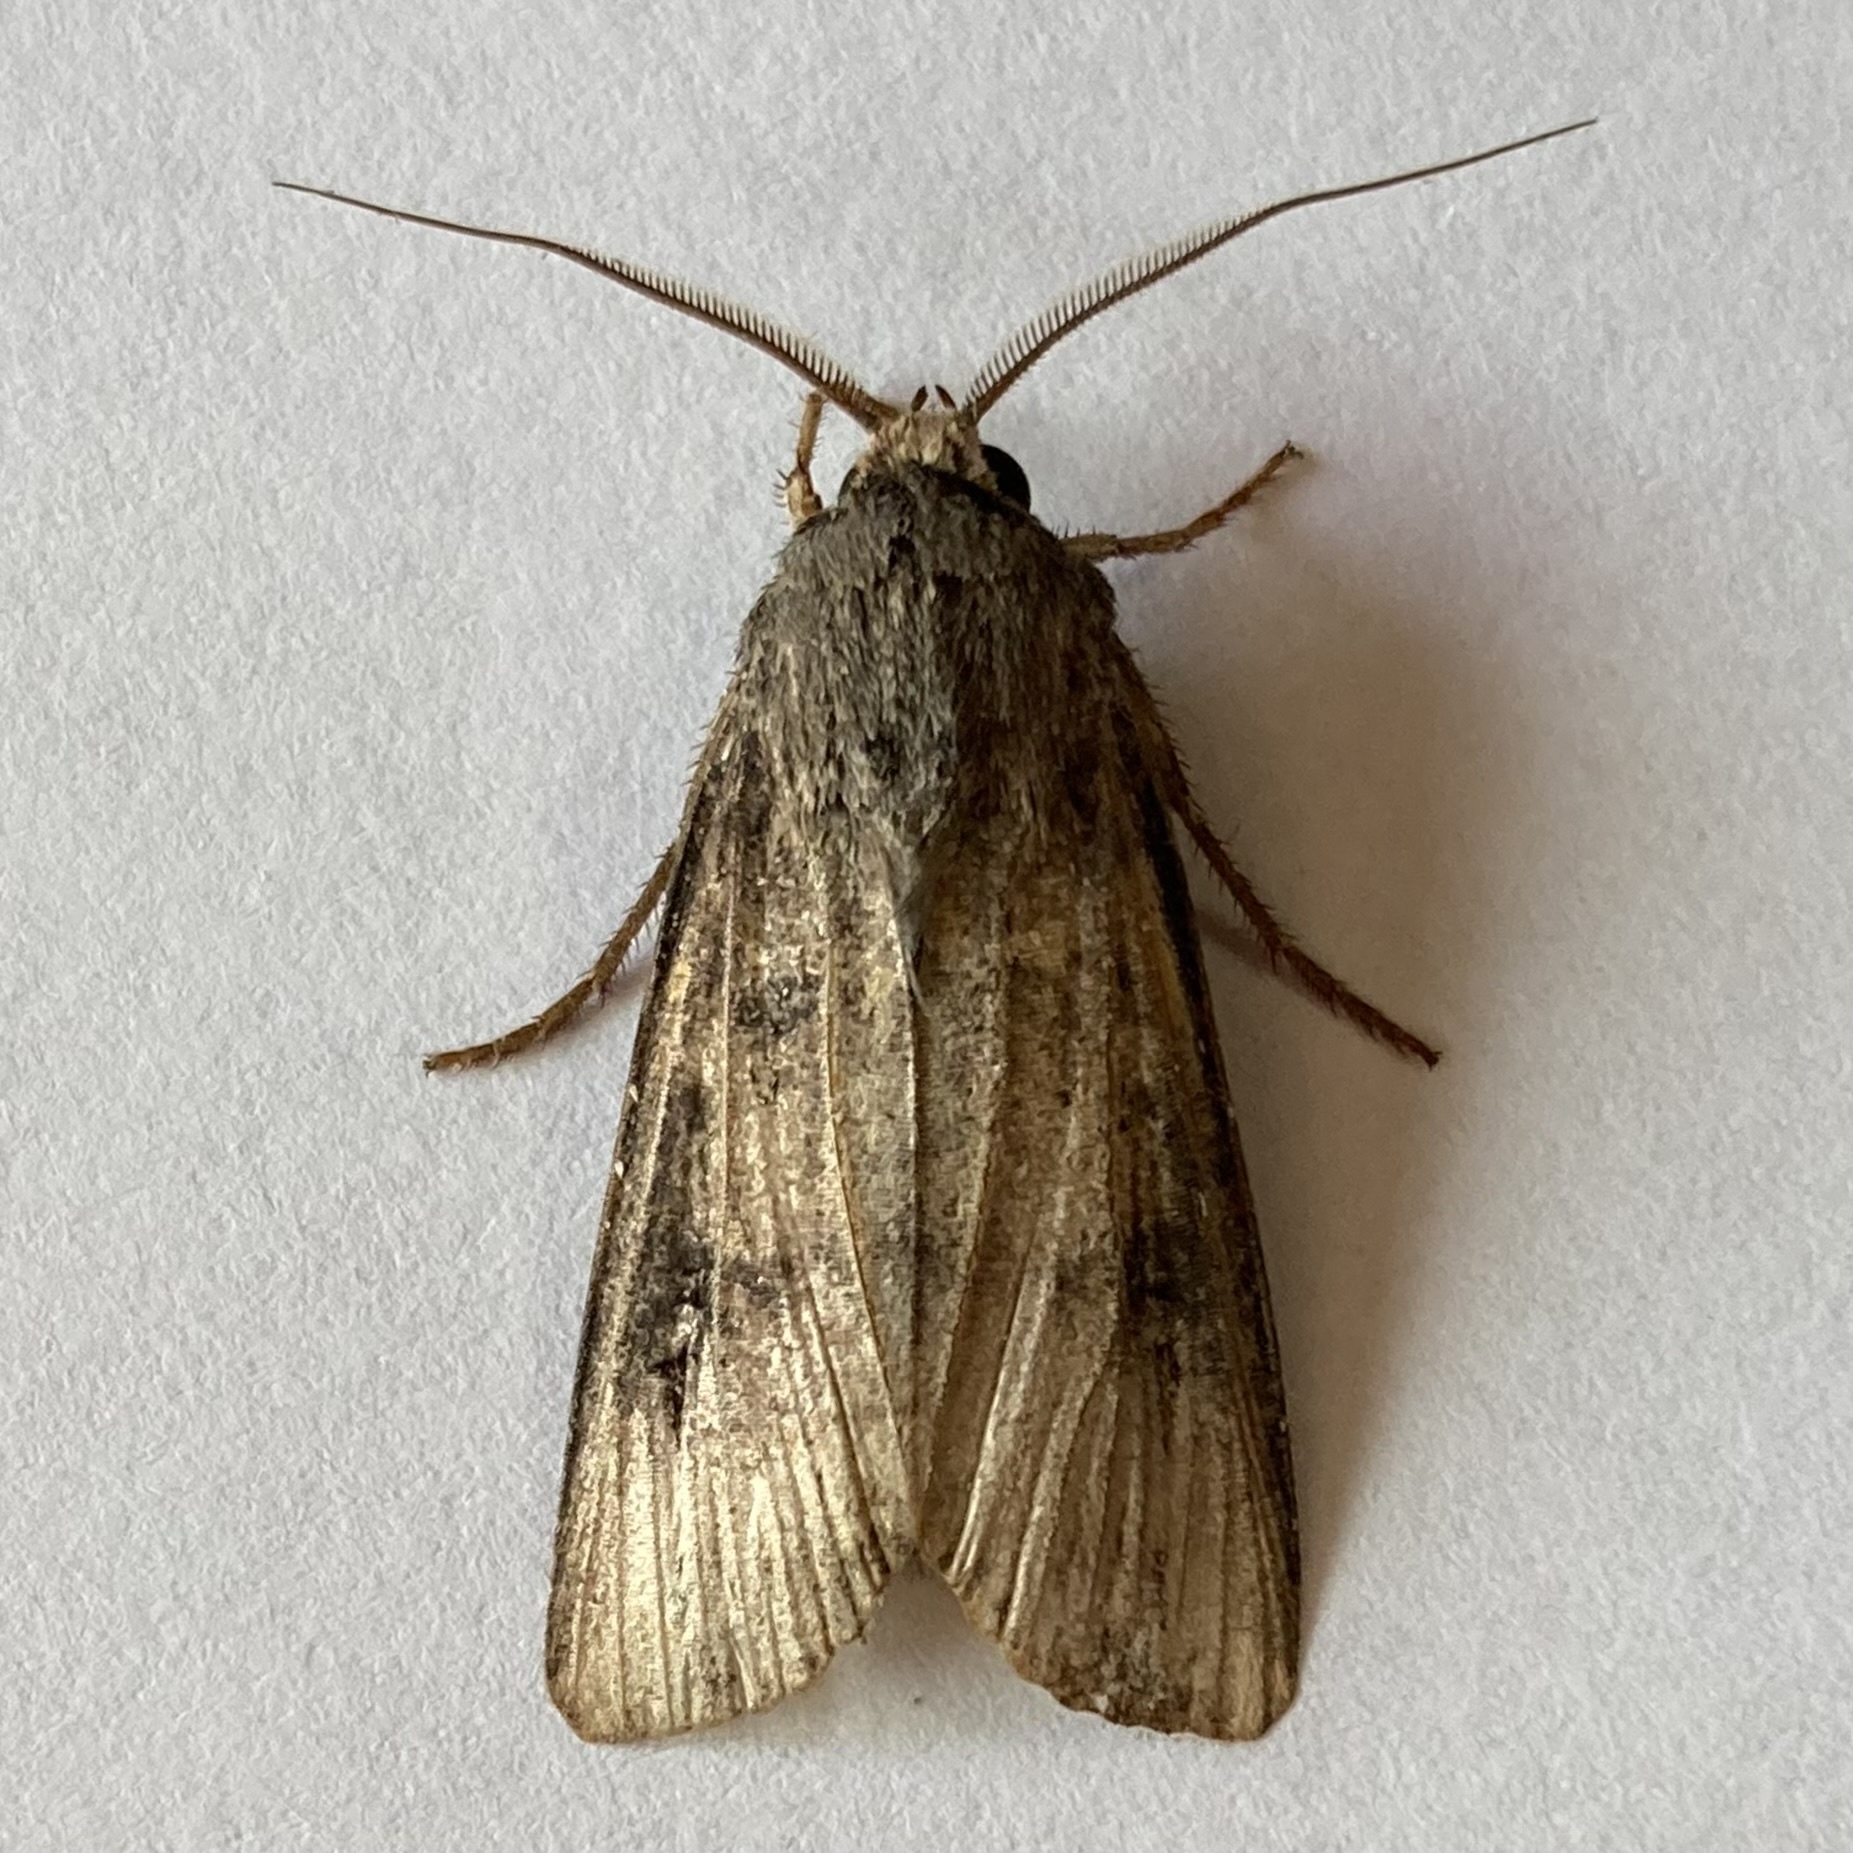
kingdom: Animalia
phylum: Arthropoda
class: Insecta
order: Lepidoptera
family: Noctuidae
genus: Agrotis
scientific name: Agrotis ipsilon
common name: Dark sword-grass
